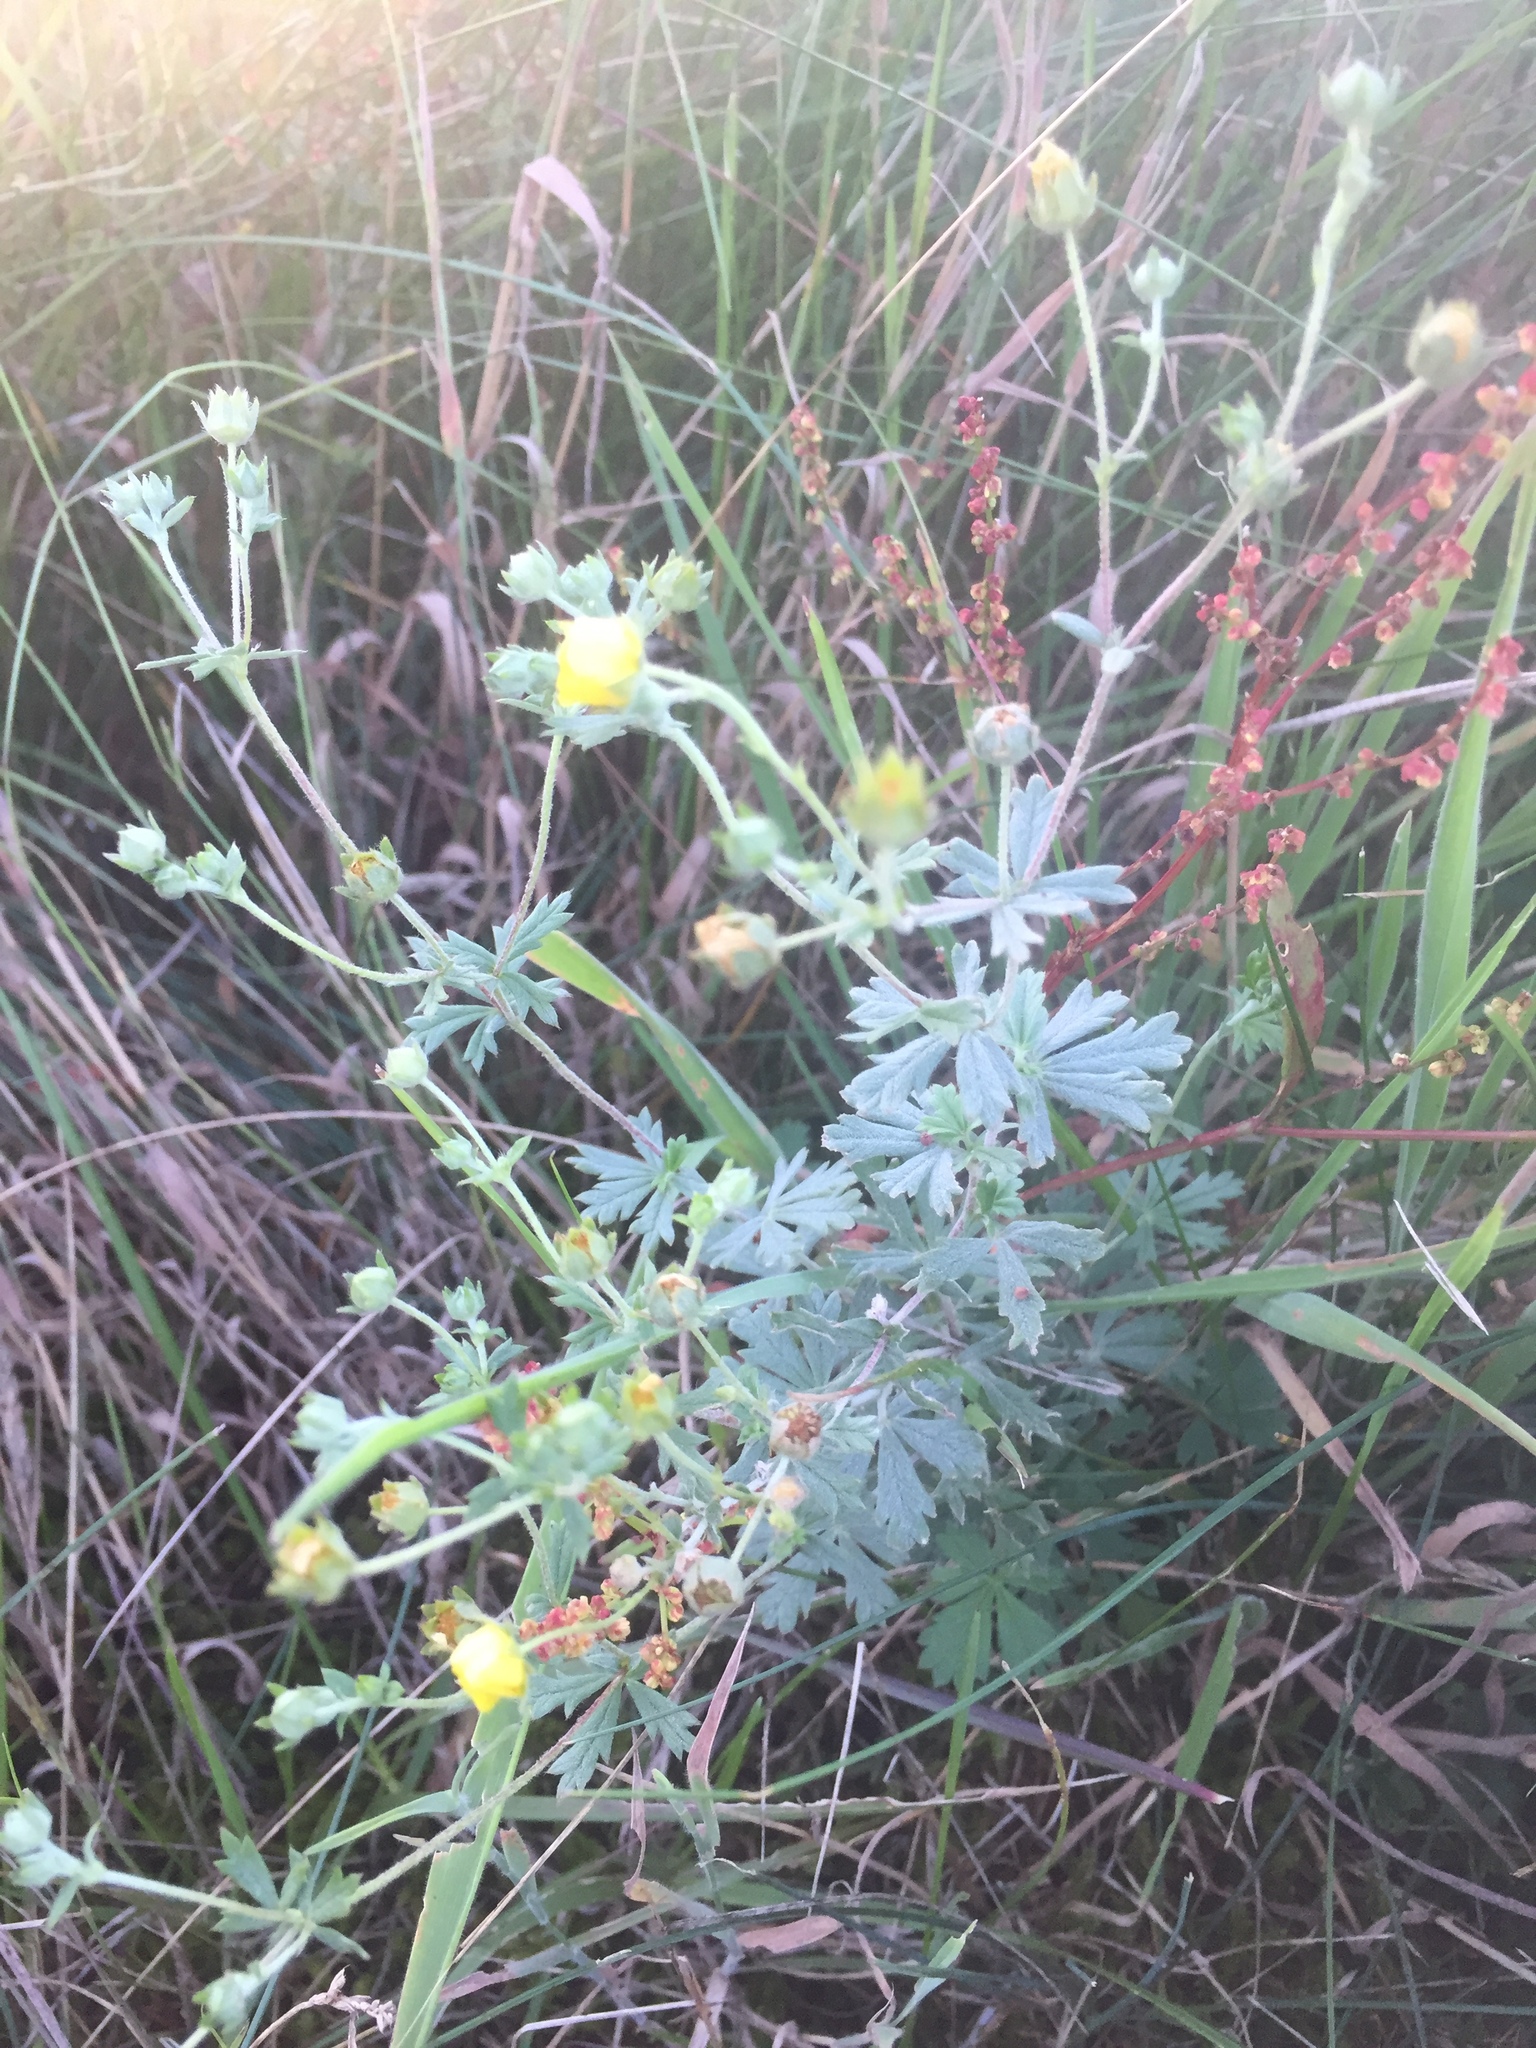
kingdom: Plantae
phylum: Tracheophyta
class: Magnoliopsida
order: Rosales
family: Rosaceae
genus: Potentilla
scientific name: Potentilla argentea
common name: Hoary cinquefoil
